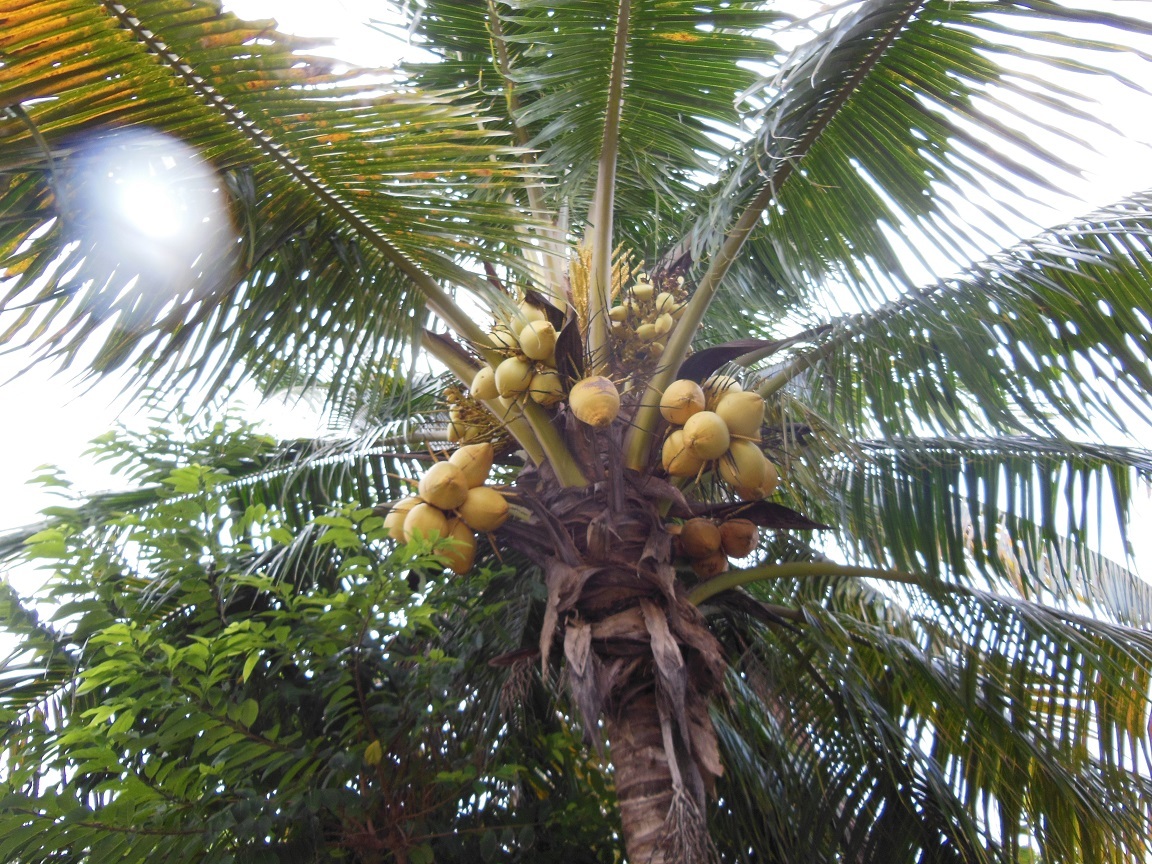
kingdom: Plantae
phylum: Tracheophyta
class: Liliopsida
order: Arecales
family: Arecaceae
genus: Cocos
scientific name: Cocos nucifera
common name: Coconut palm
